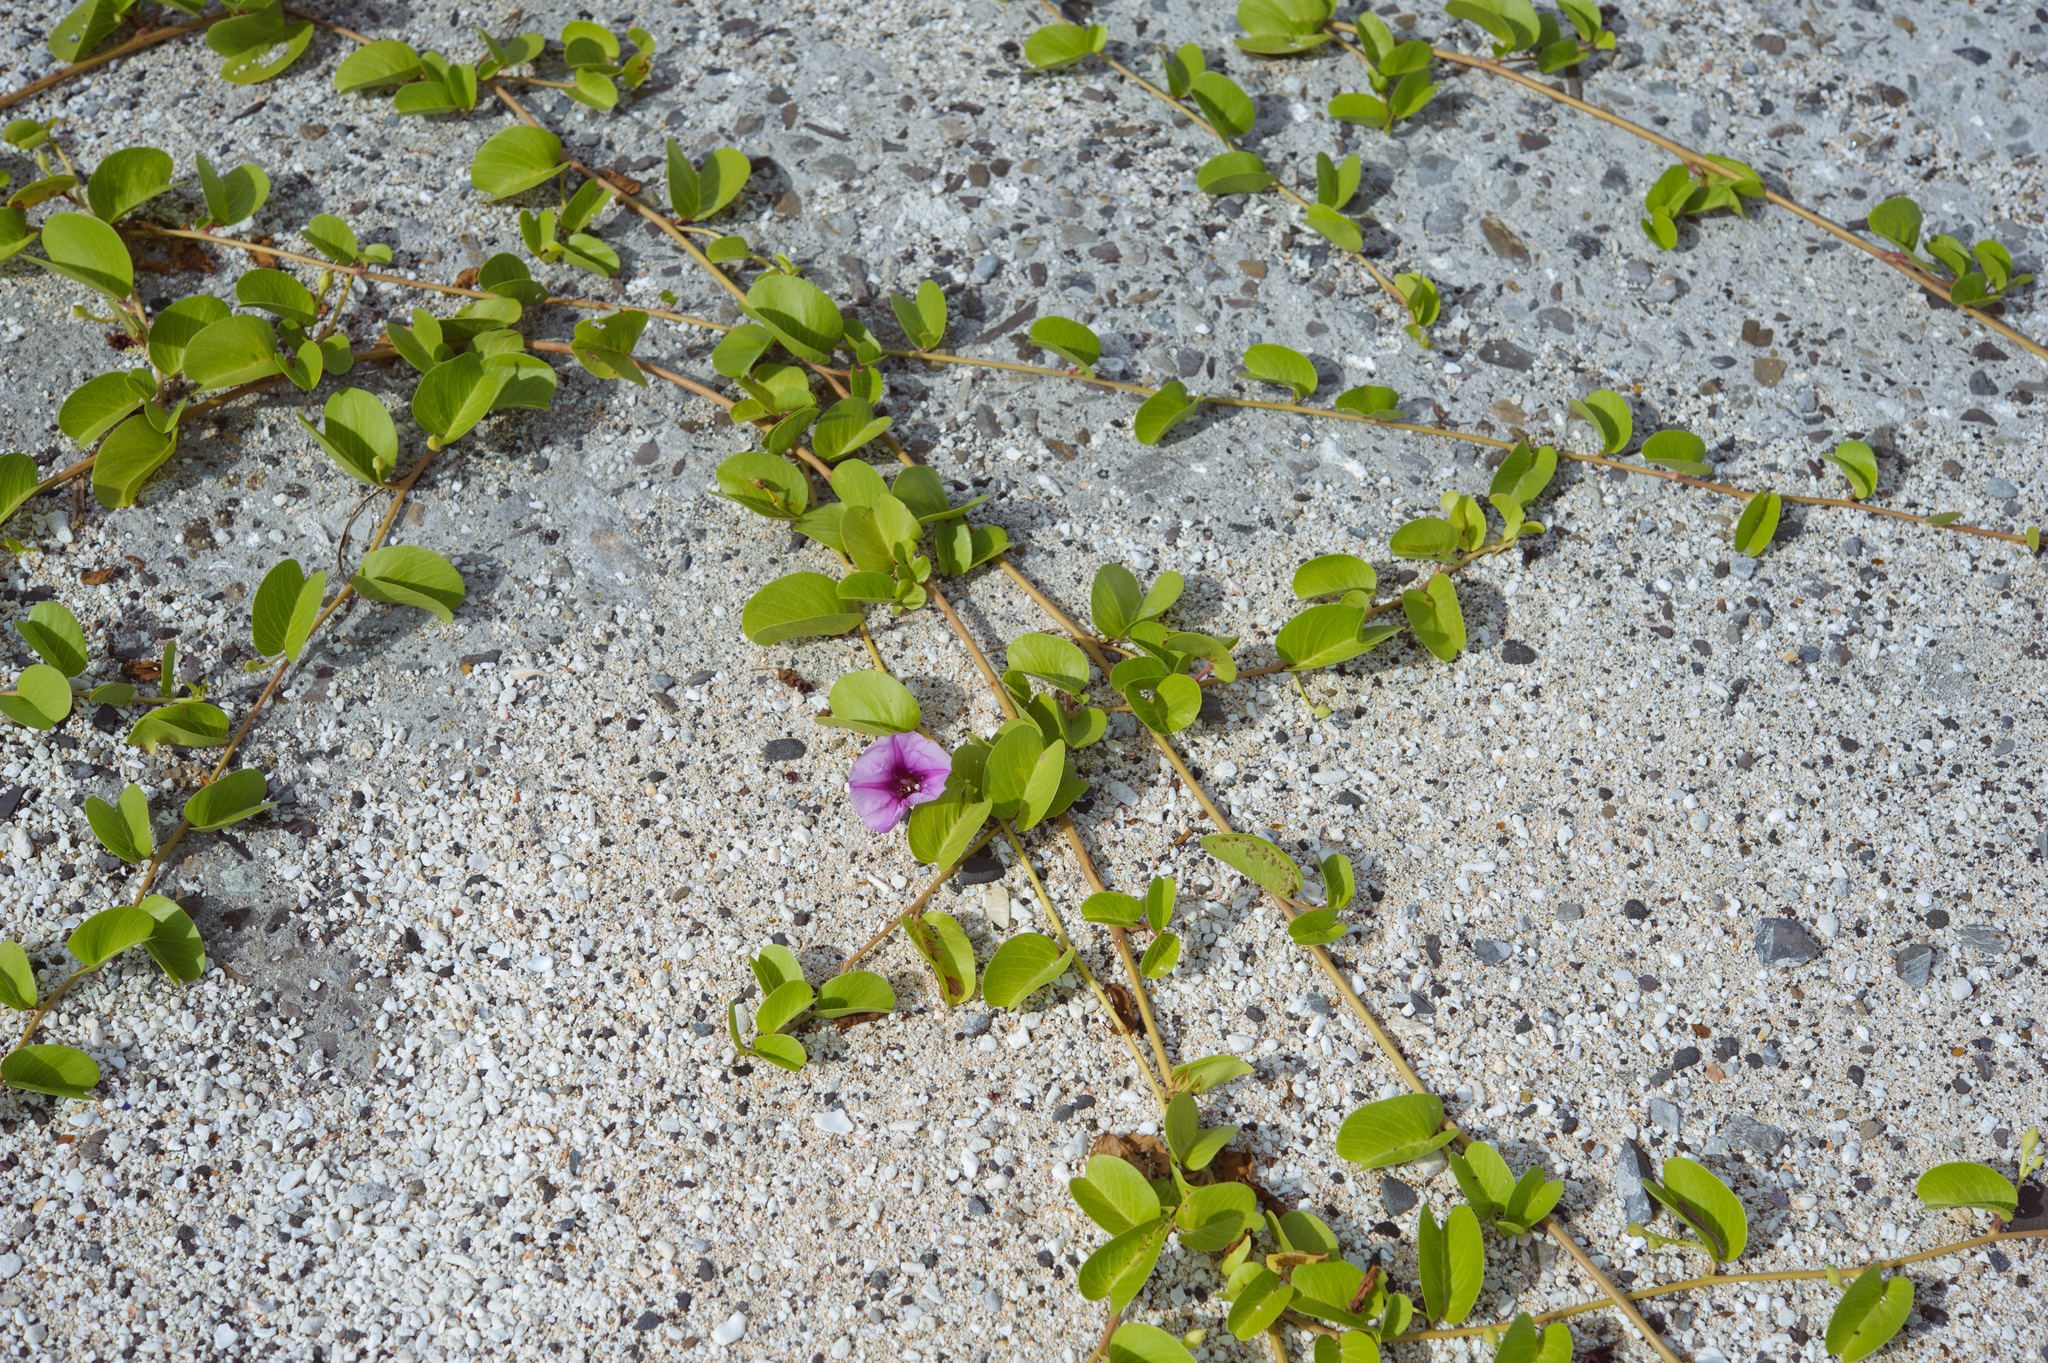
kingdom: Plantae
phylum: Tracheophyta
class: Magnoliopsida
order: Solanales
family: Convolvulaceae
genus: Ipomoea
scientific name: Ipomoea pes-caprae
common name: Beach morning glory
